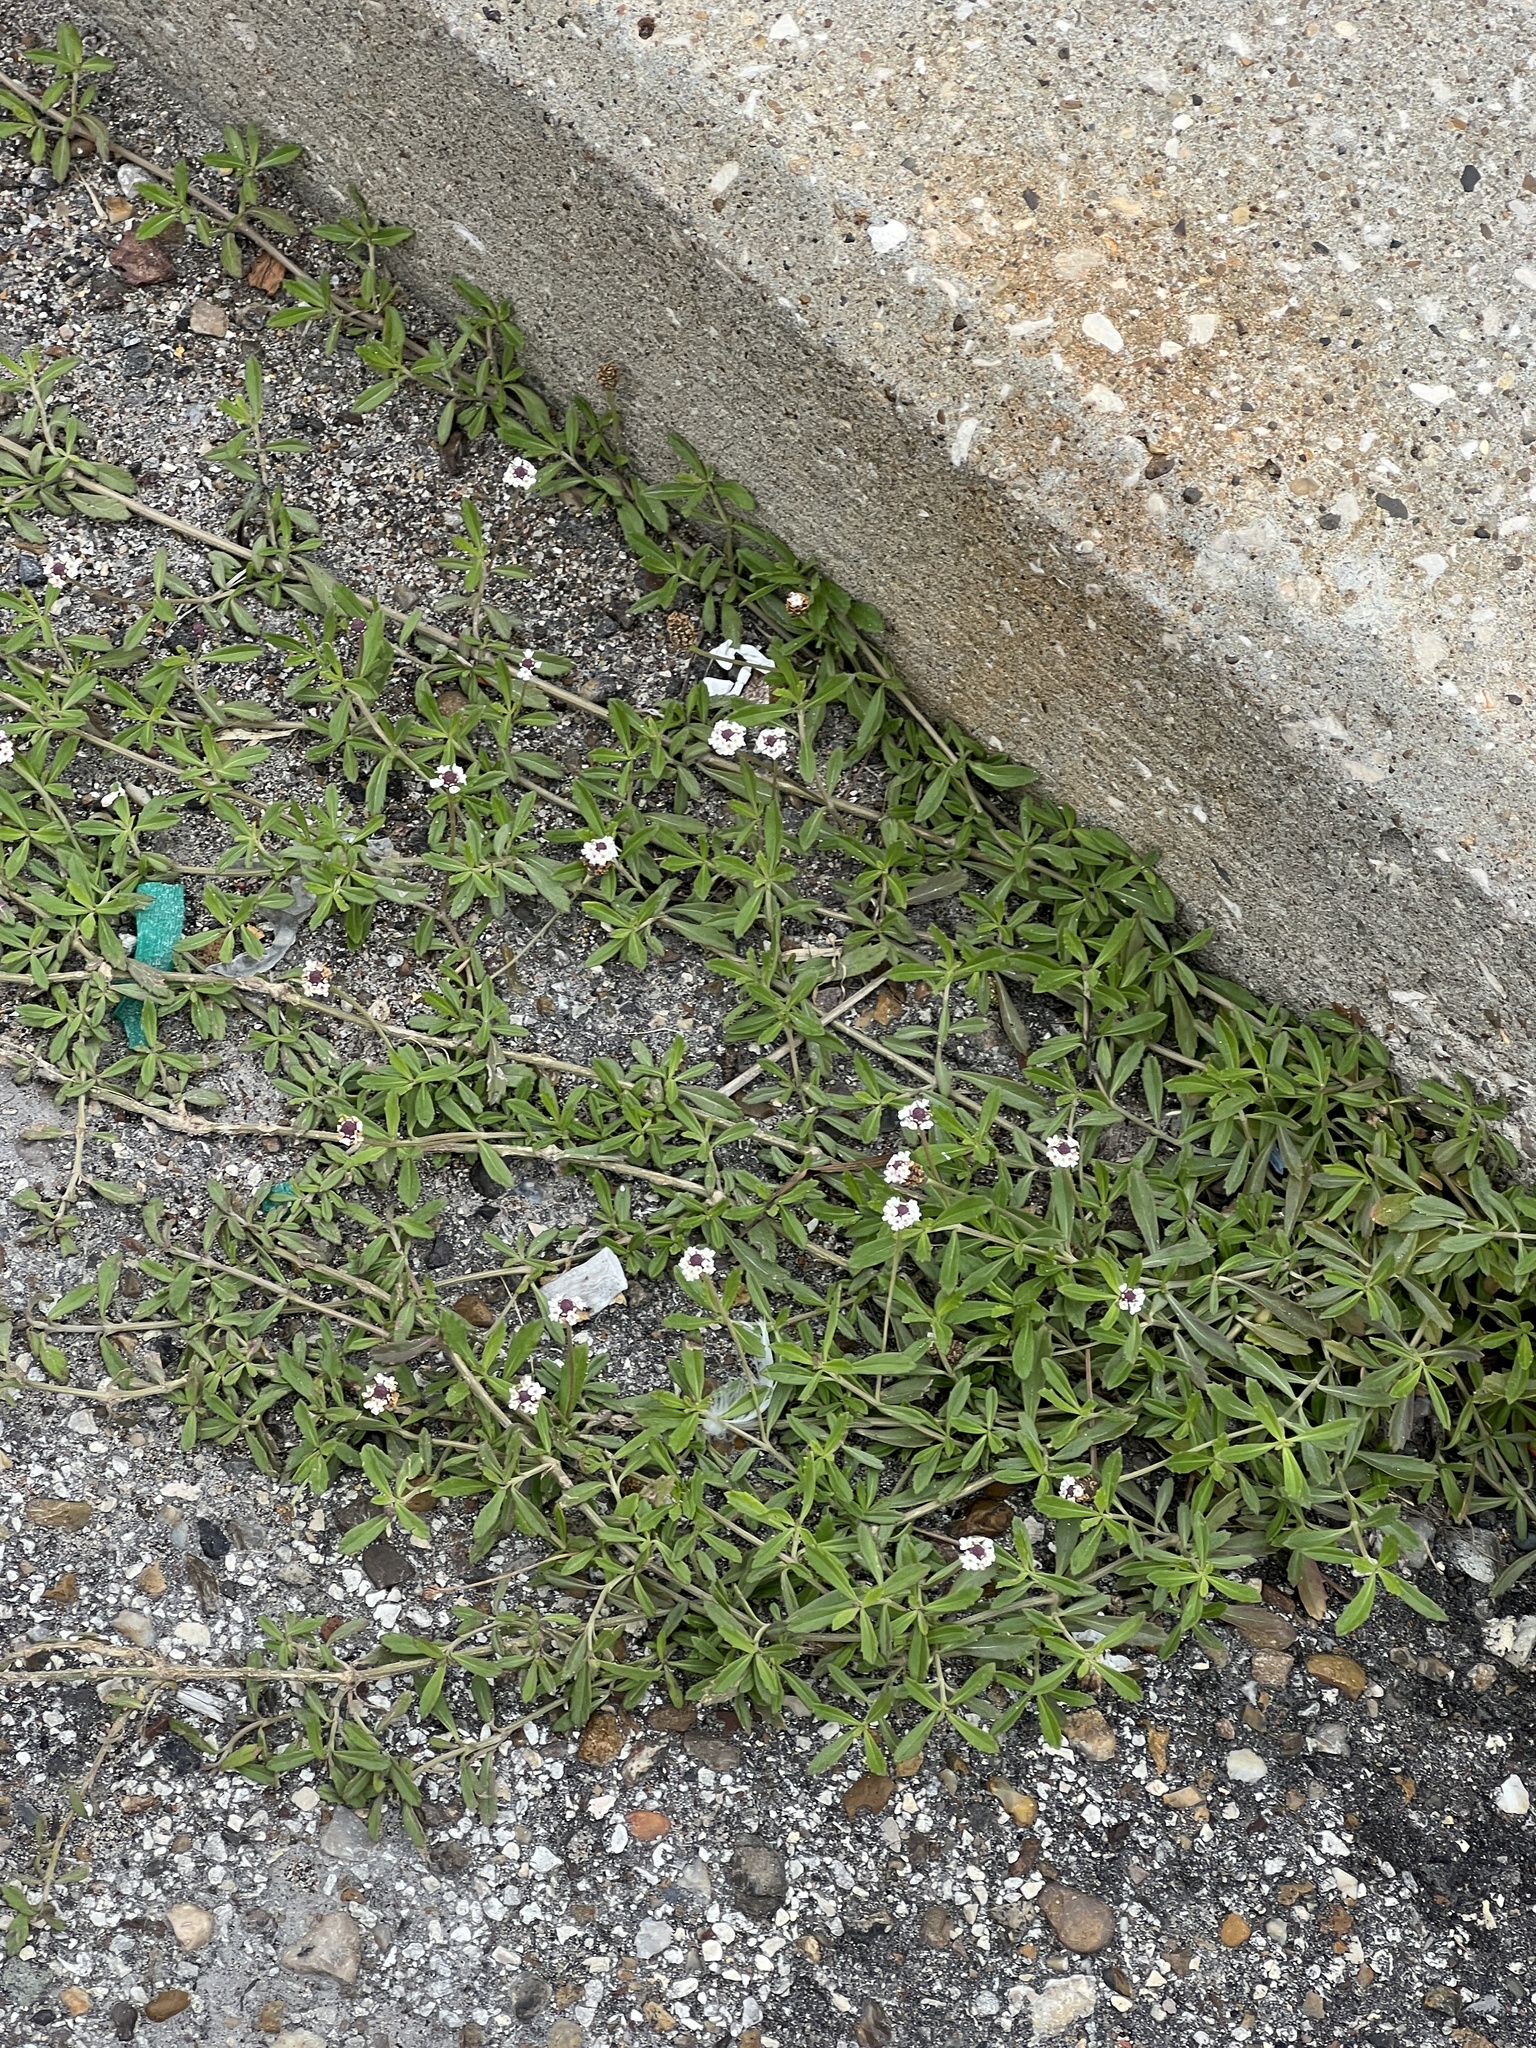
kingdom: Plantae
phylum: Tracheophyta
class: Magnoliopsida
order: Lamiales
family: Verbenaceae
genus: Phyla
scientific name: Phyla nodiflora
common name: Frogfruit
